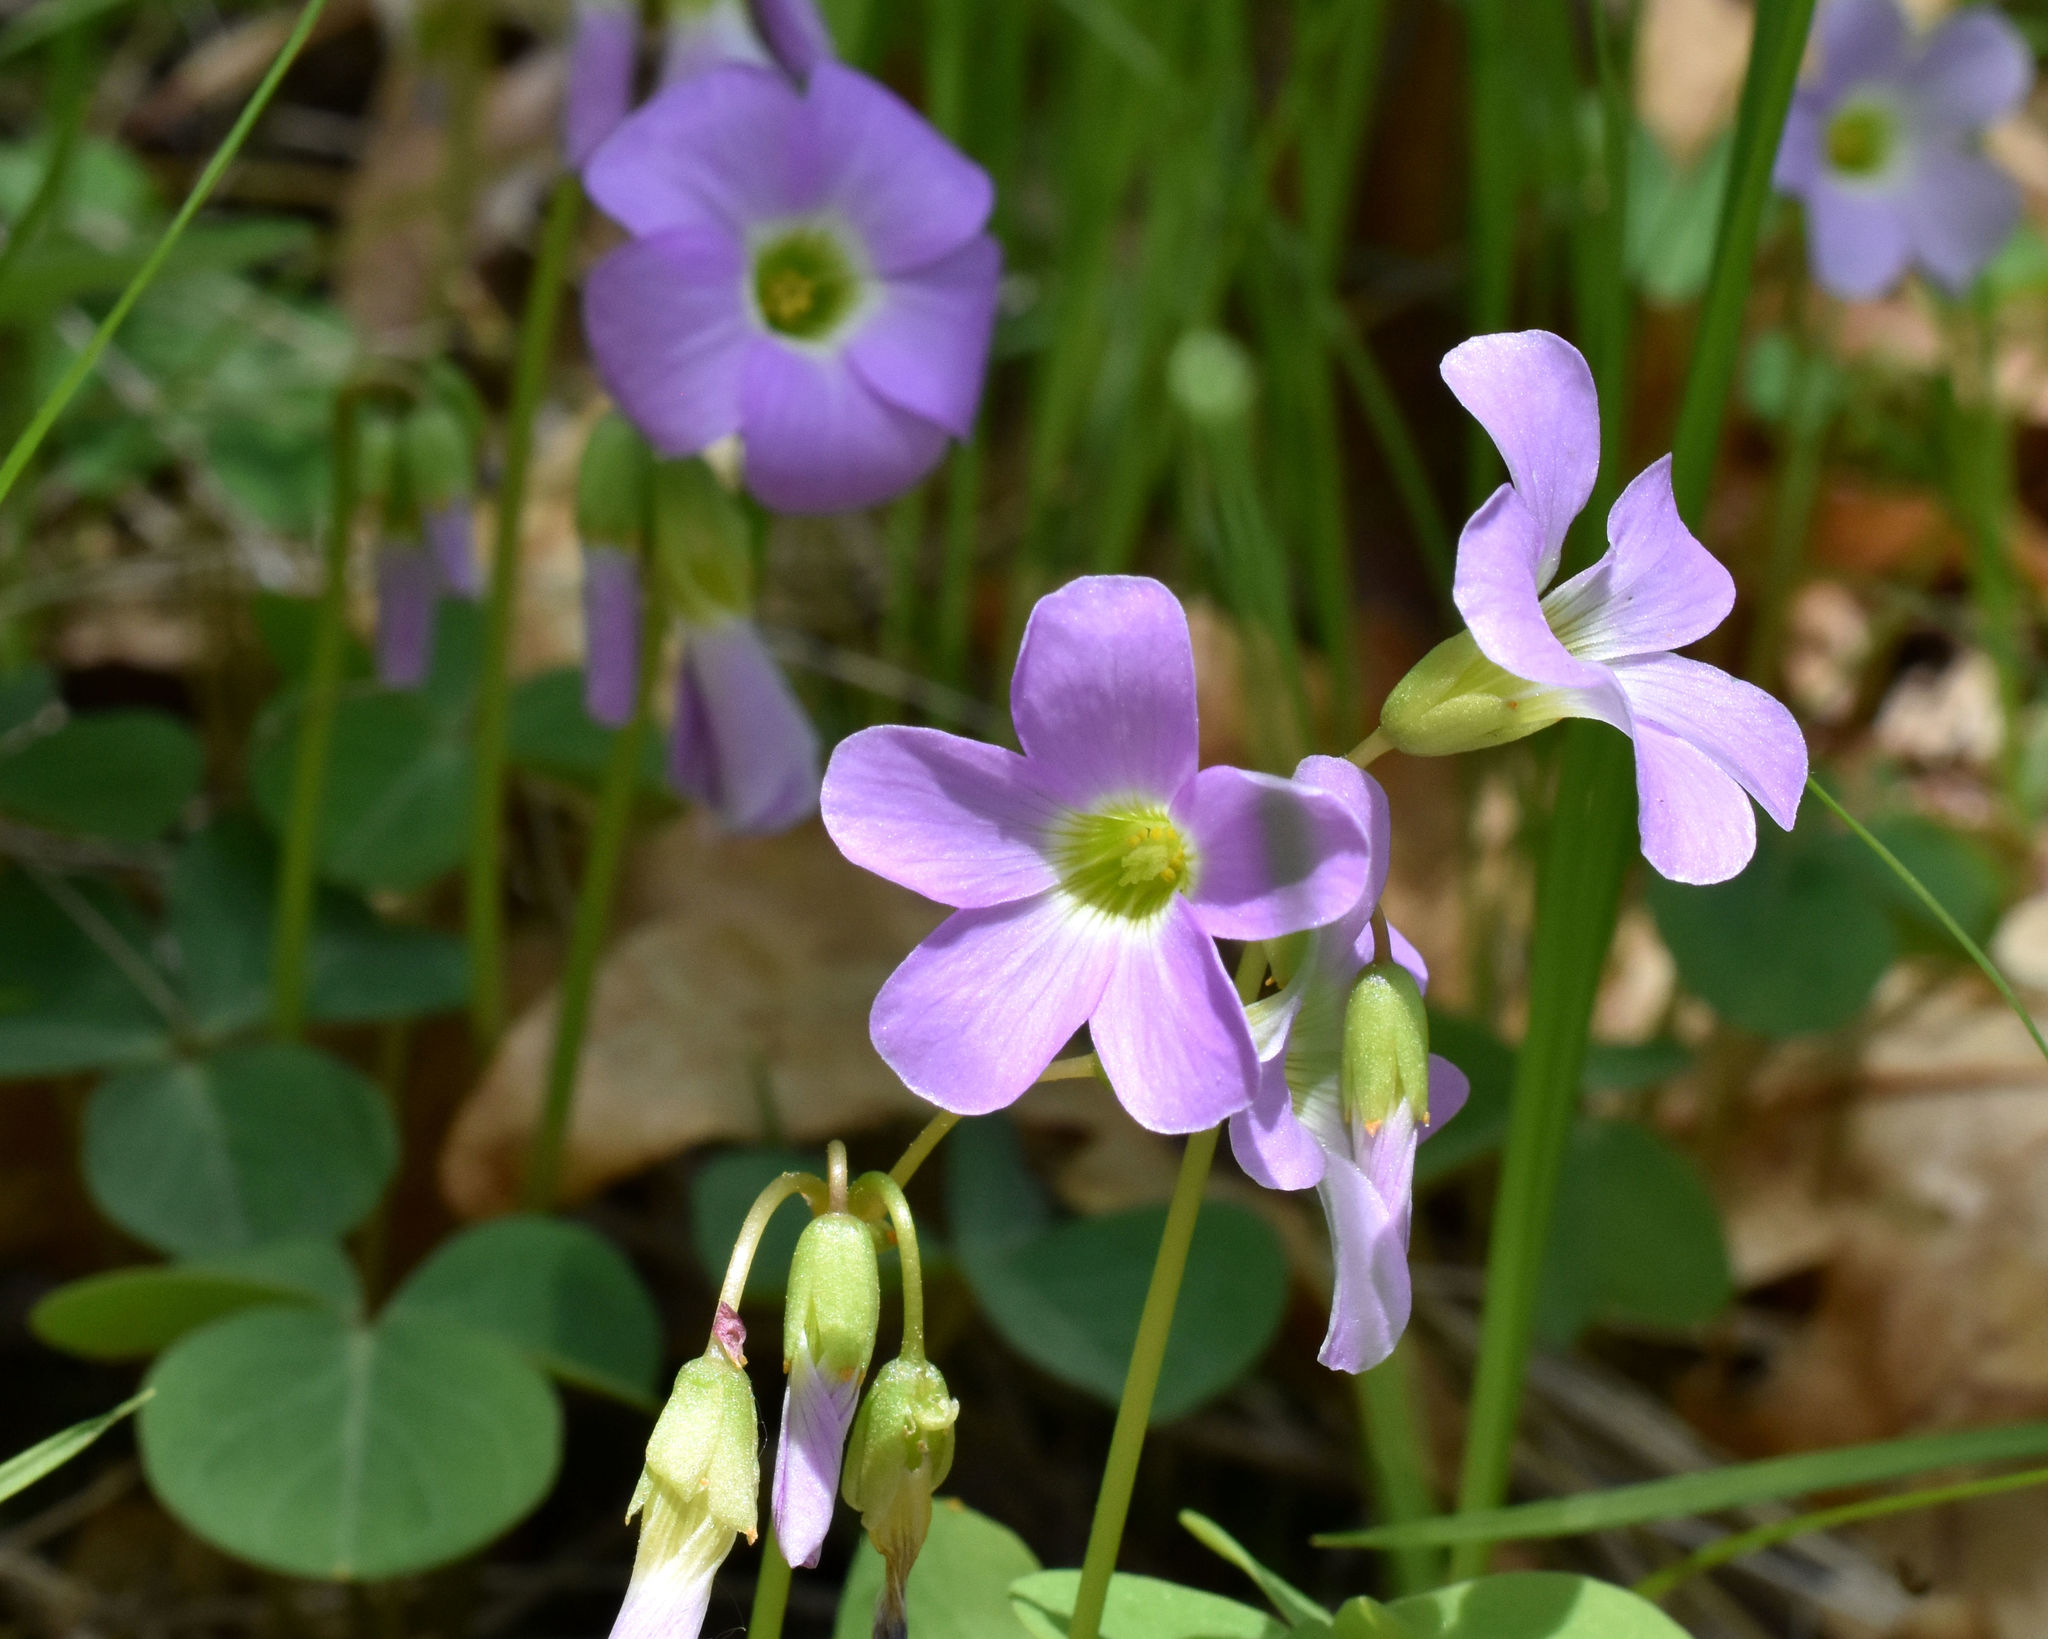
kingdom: Plantae
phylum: Tracheophyta
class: Magnoliopsida
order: Oxalidales
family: Oxalidaceae
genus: Oxalis
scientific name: Oxalis violacea
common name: Violet wood-sorrel
